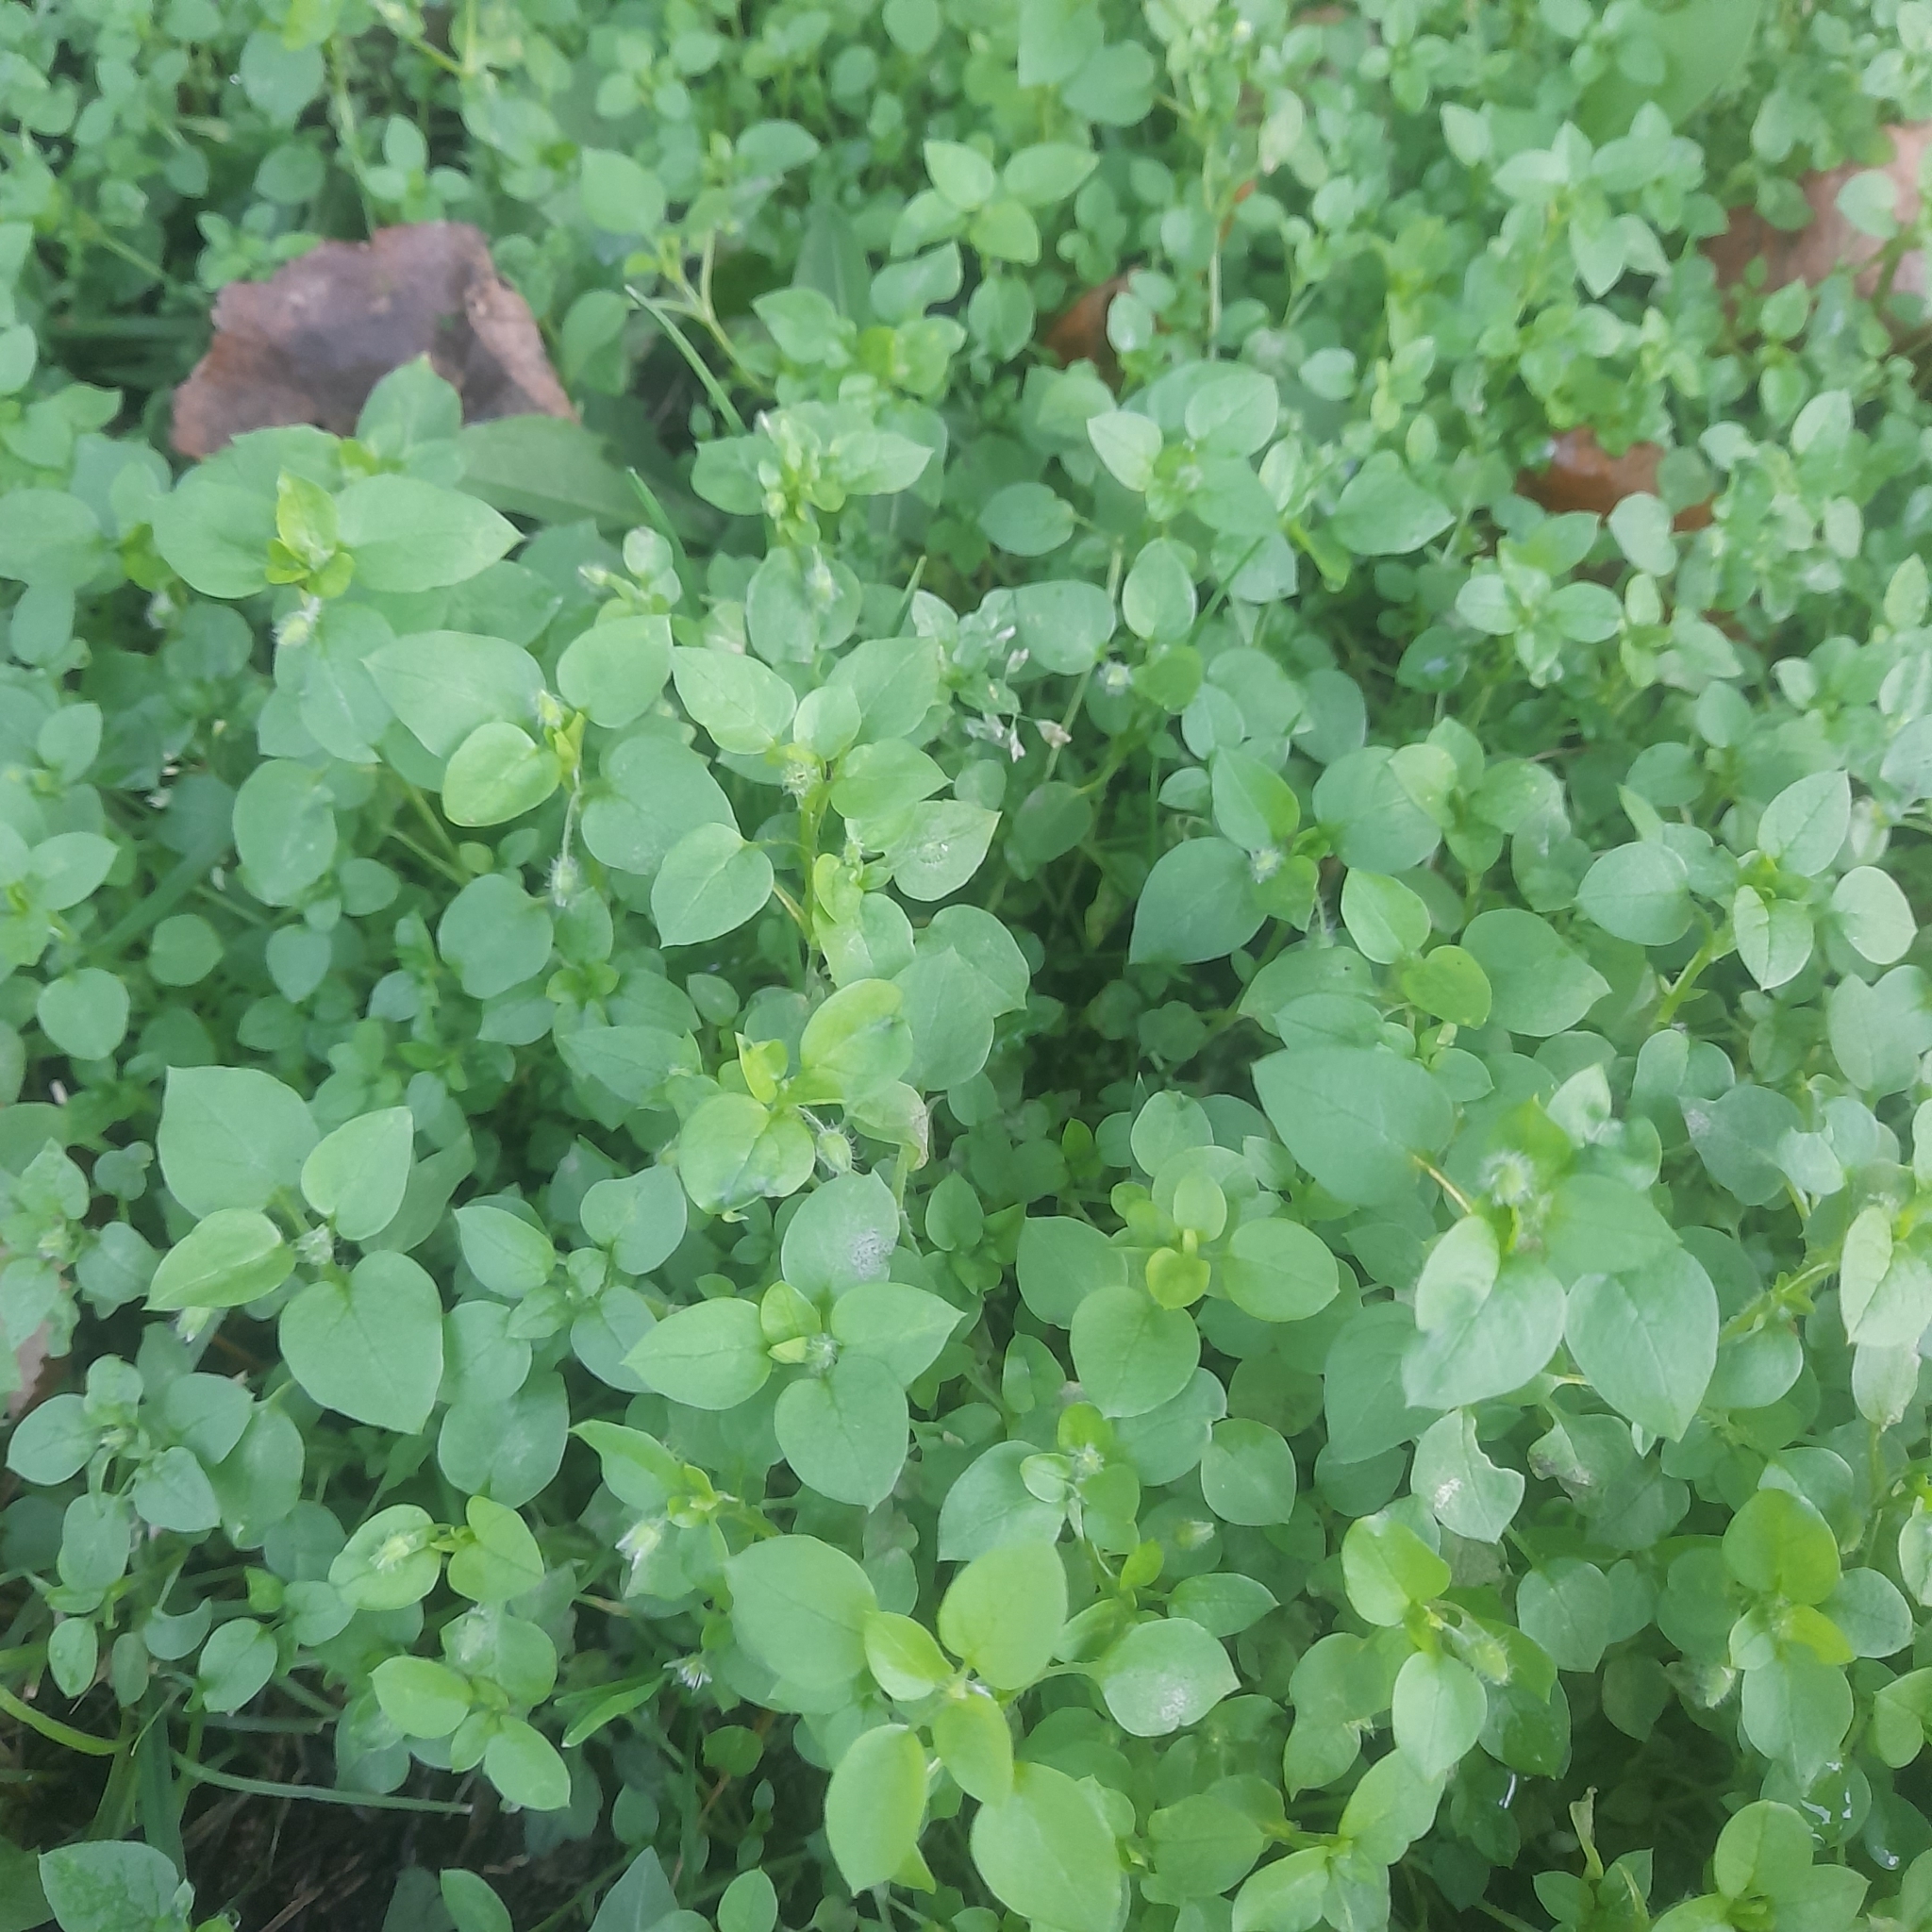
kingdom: Plantae
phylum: Tracheophyta
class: Magnoliopsida
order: Caryophyllales
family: Caryophyllaceae
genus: Stellaria
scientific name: Stellaria media
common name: Common chickweed
